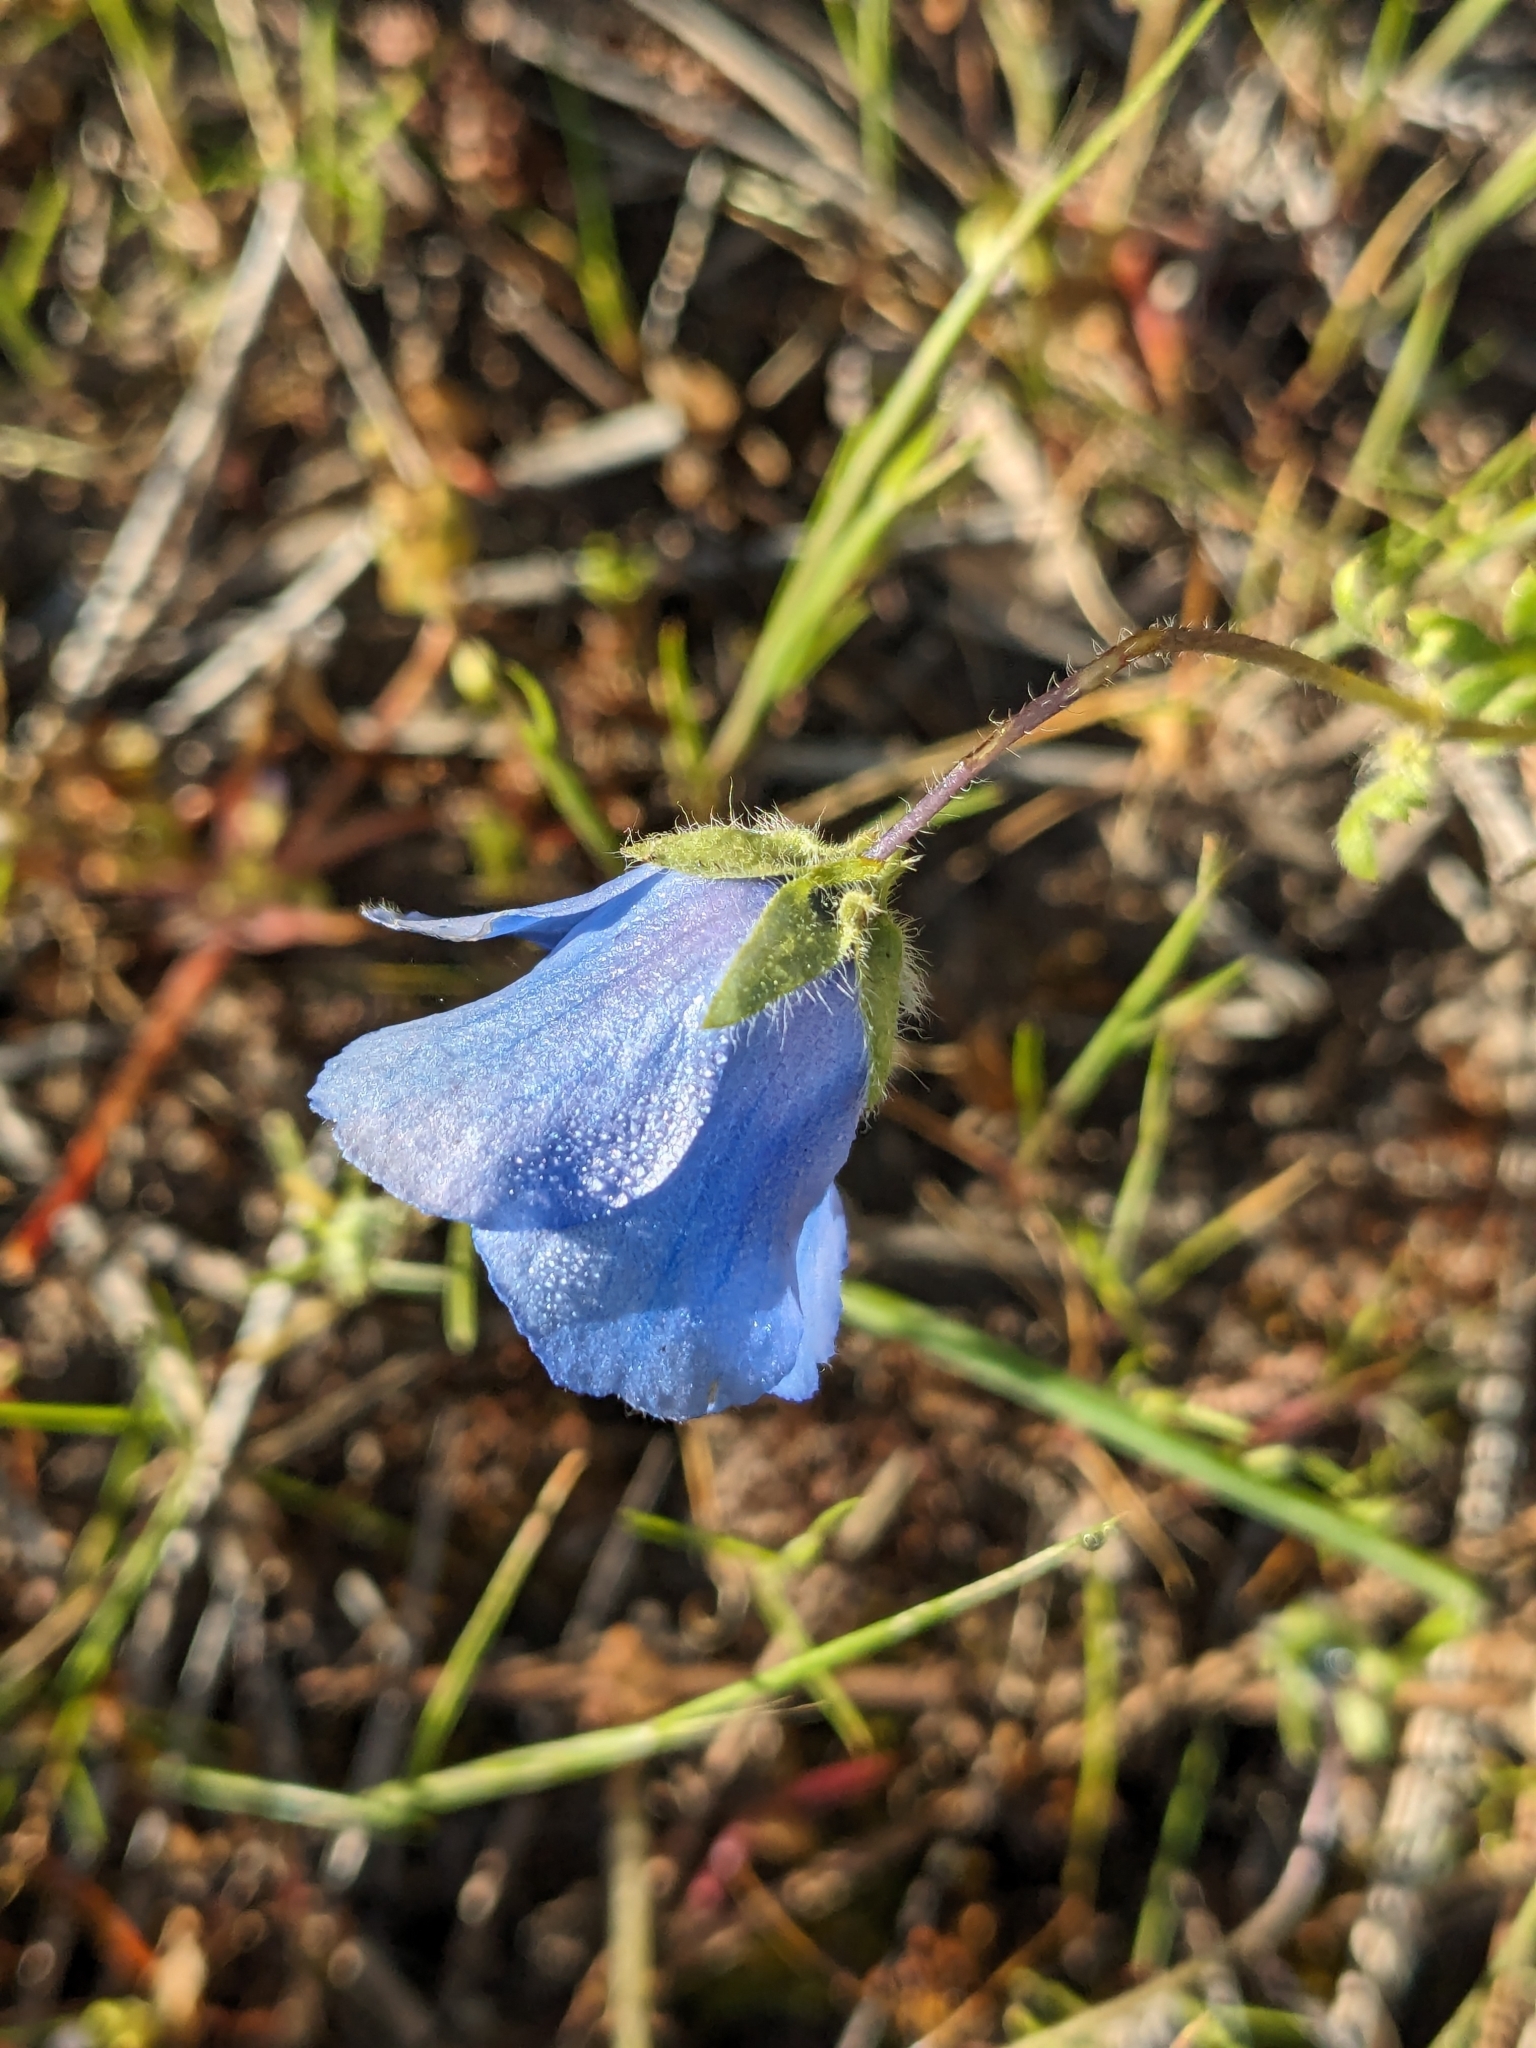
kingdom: Plantae
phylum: Tracheophyta
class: Magnoliopsida
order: Boraginales
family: Hydrophyllaceae
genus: Nemophila
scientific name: Nemophila menziesii
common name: Baby's-blue-eyes
